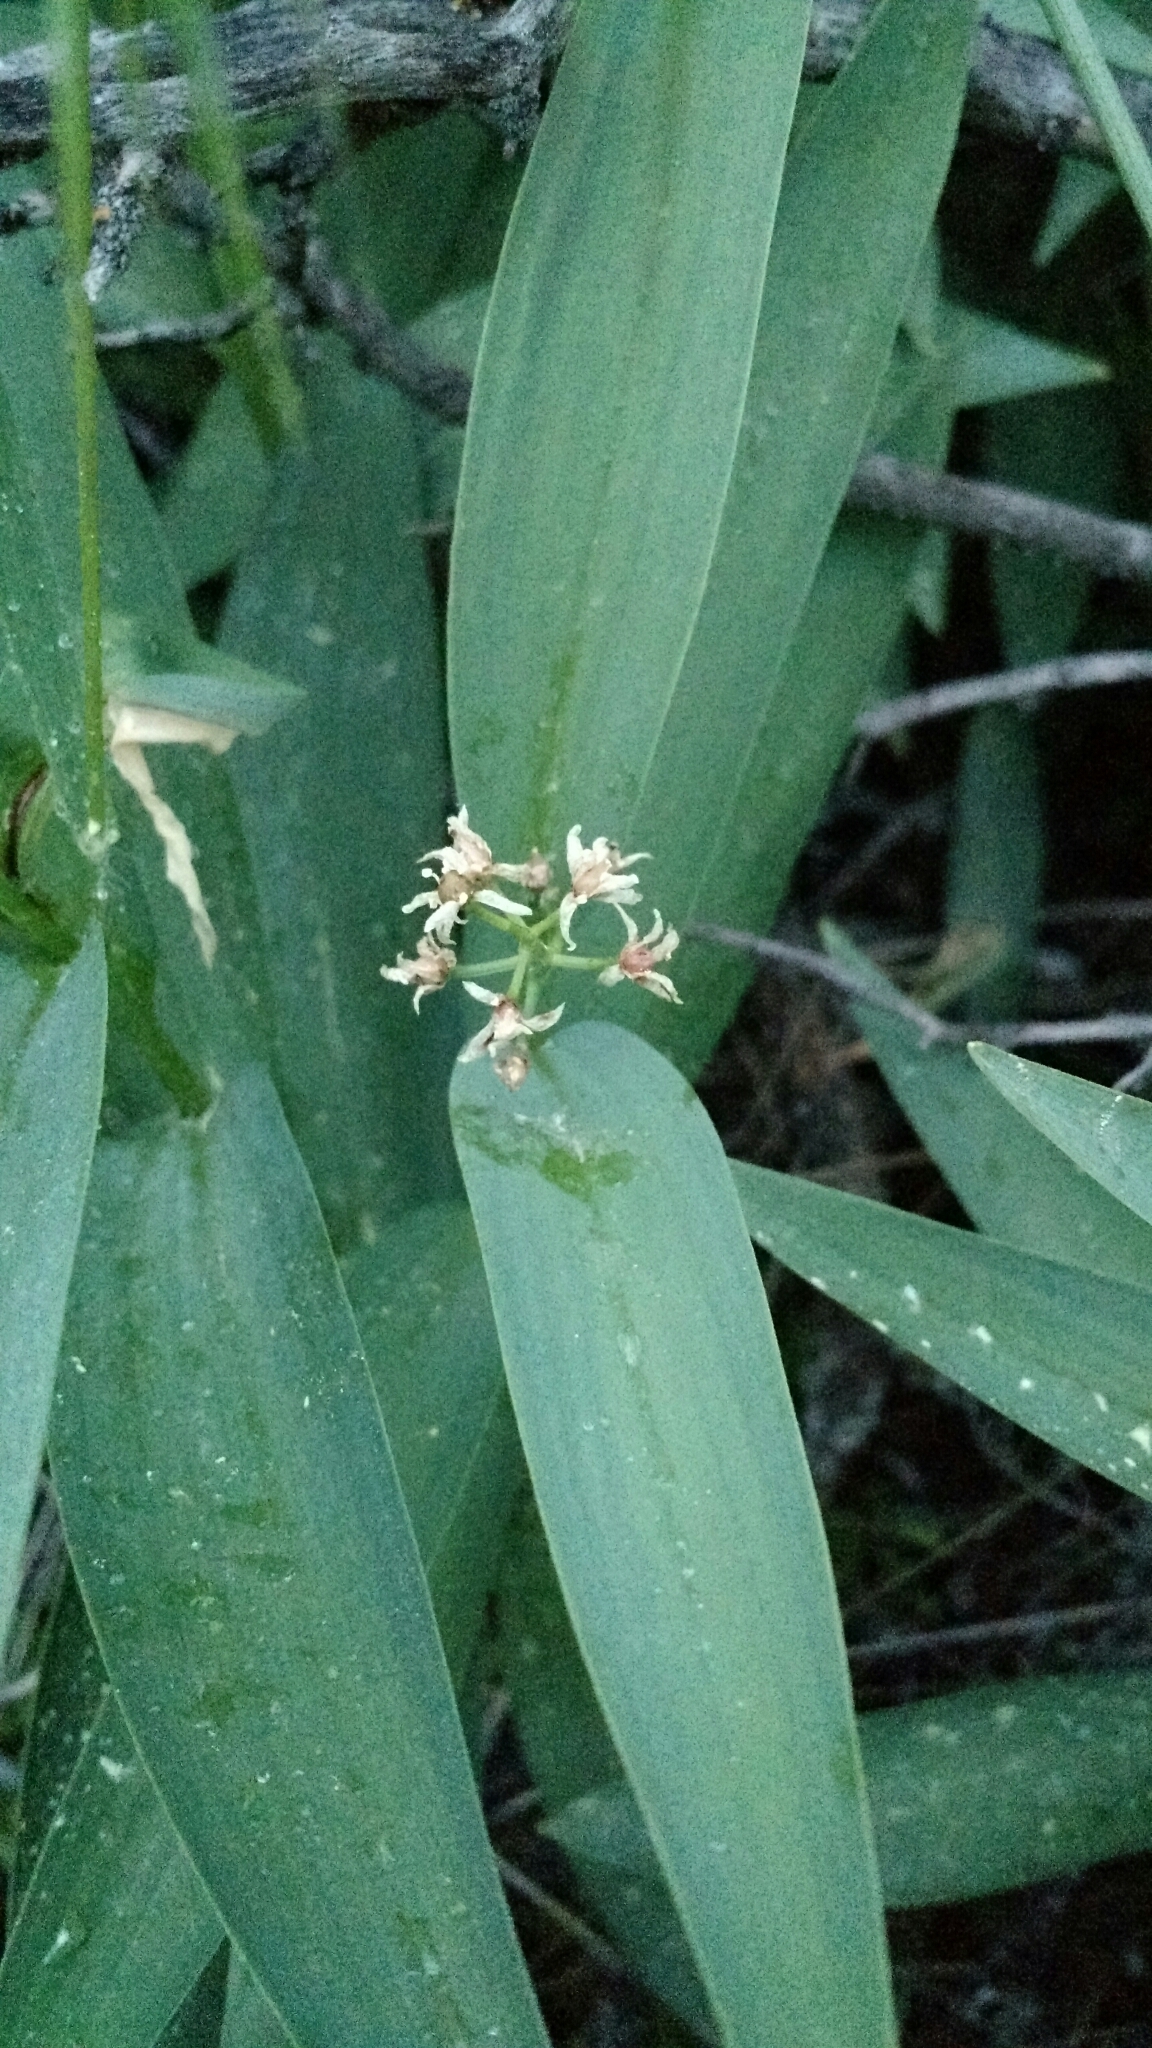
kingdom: Plantae
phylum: Tracheophyta
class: Liliopsida
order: Asparagales
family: Asparagaceae
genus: Maianthemum
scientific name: Maianthemum stellatum
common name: Little false solomon's seal
